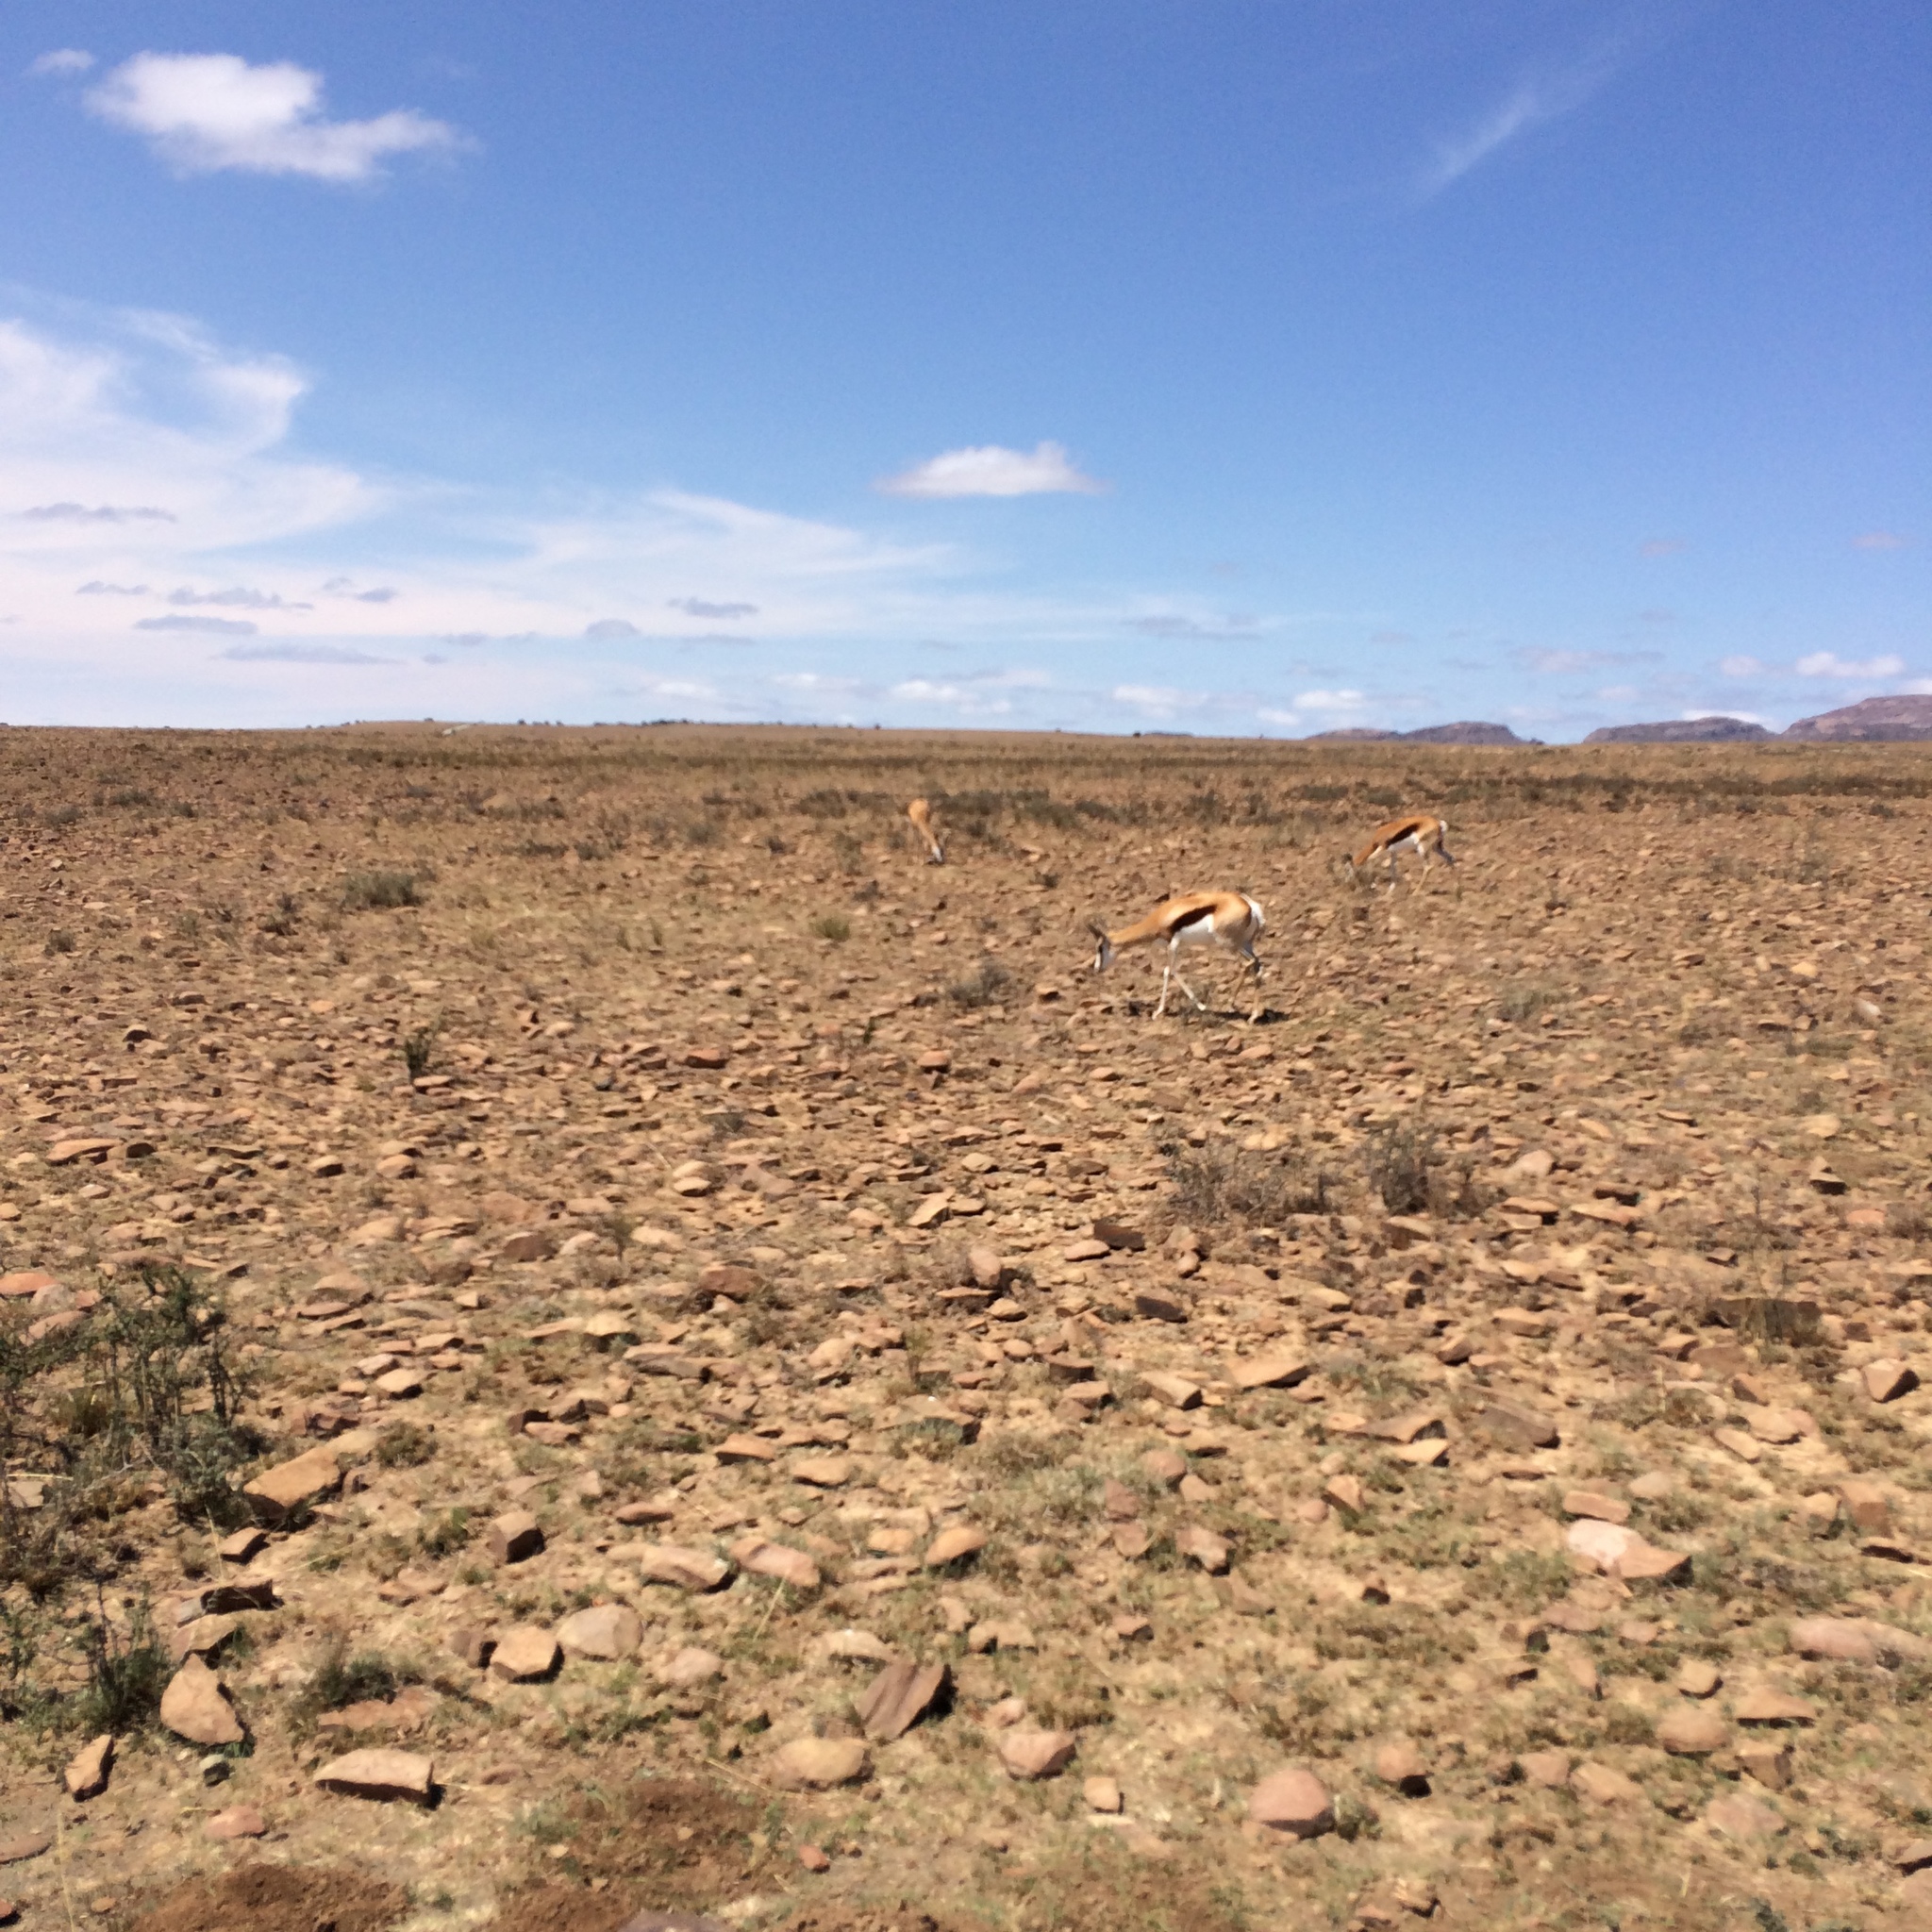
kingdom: Animalia
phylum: Chordata
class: Mammalia
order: Artiodactyla
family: Bovidae
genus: Antidorcas
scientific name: Antidorcas marsupialis
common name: Springbok
